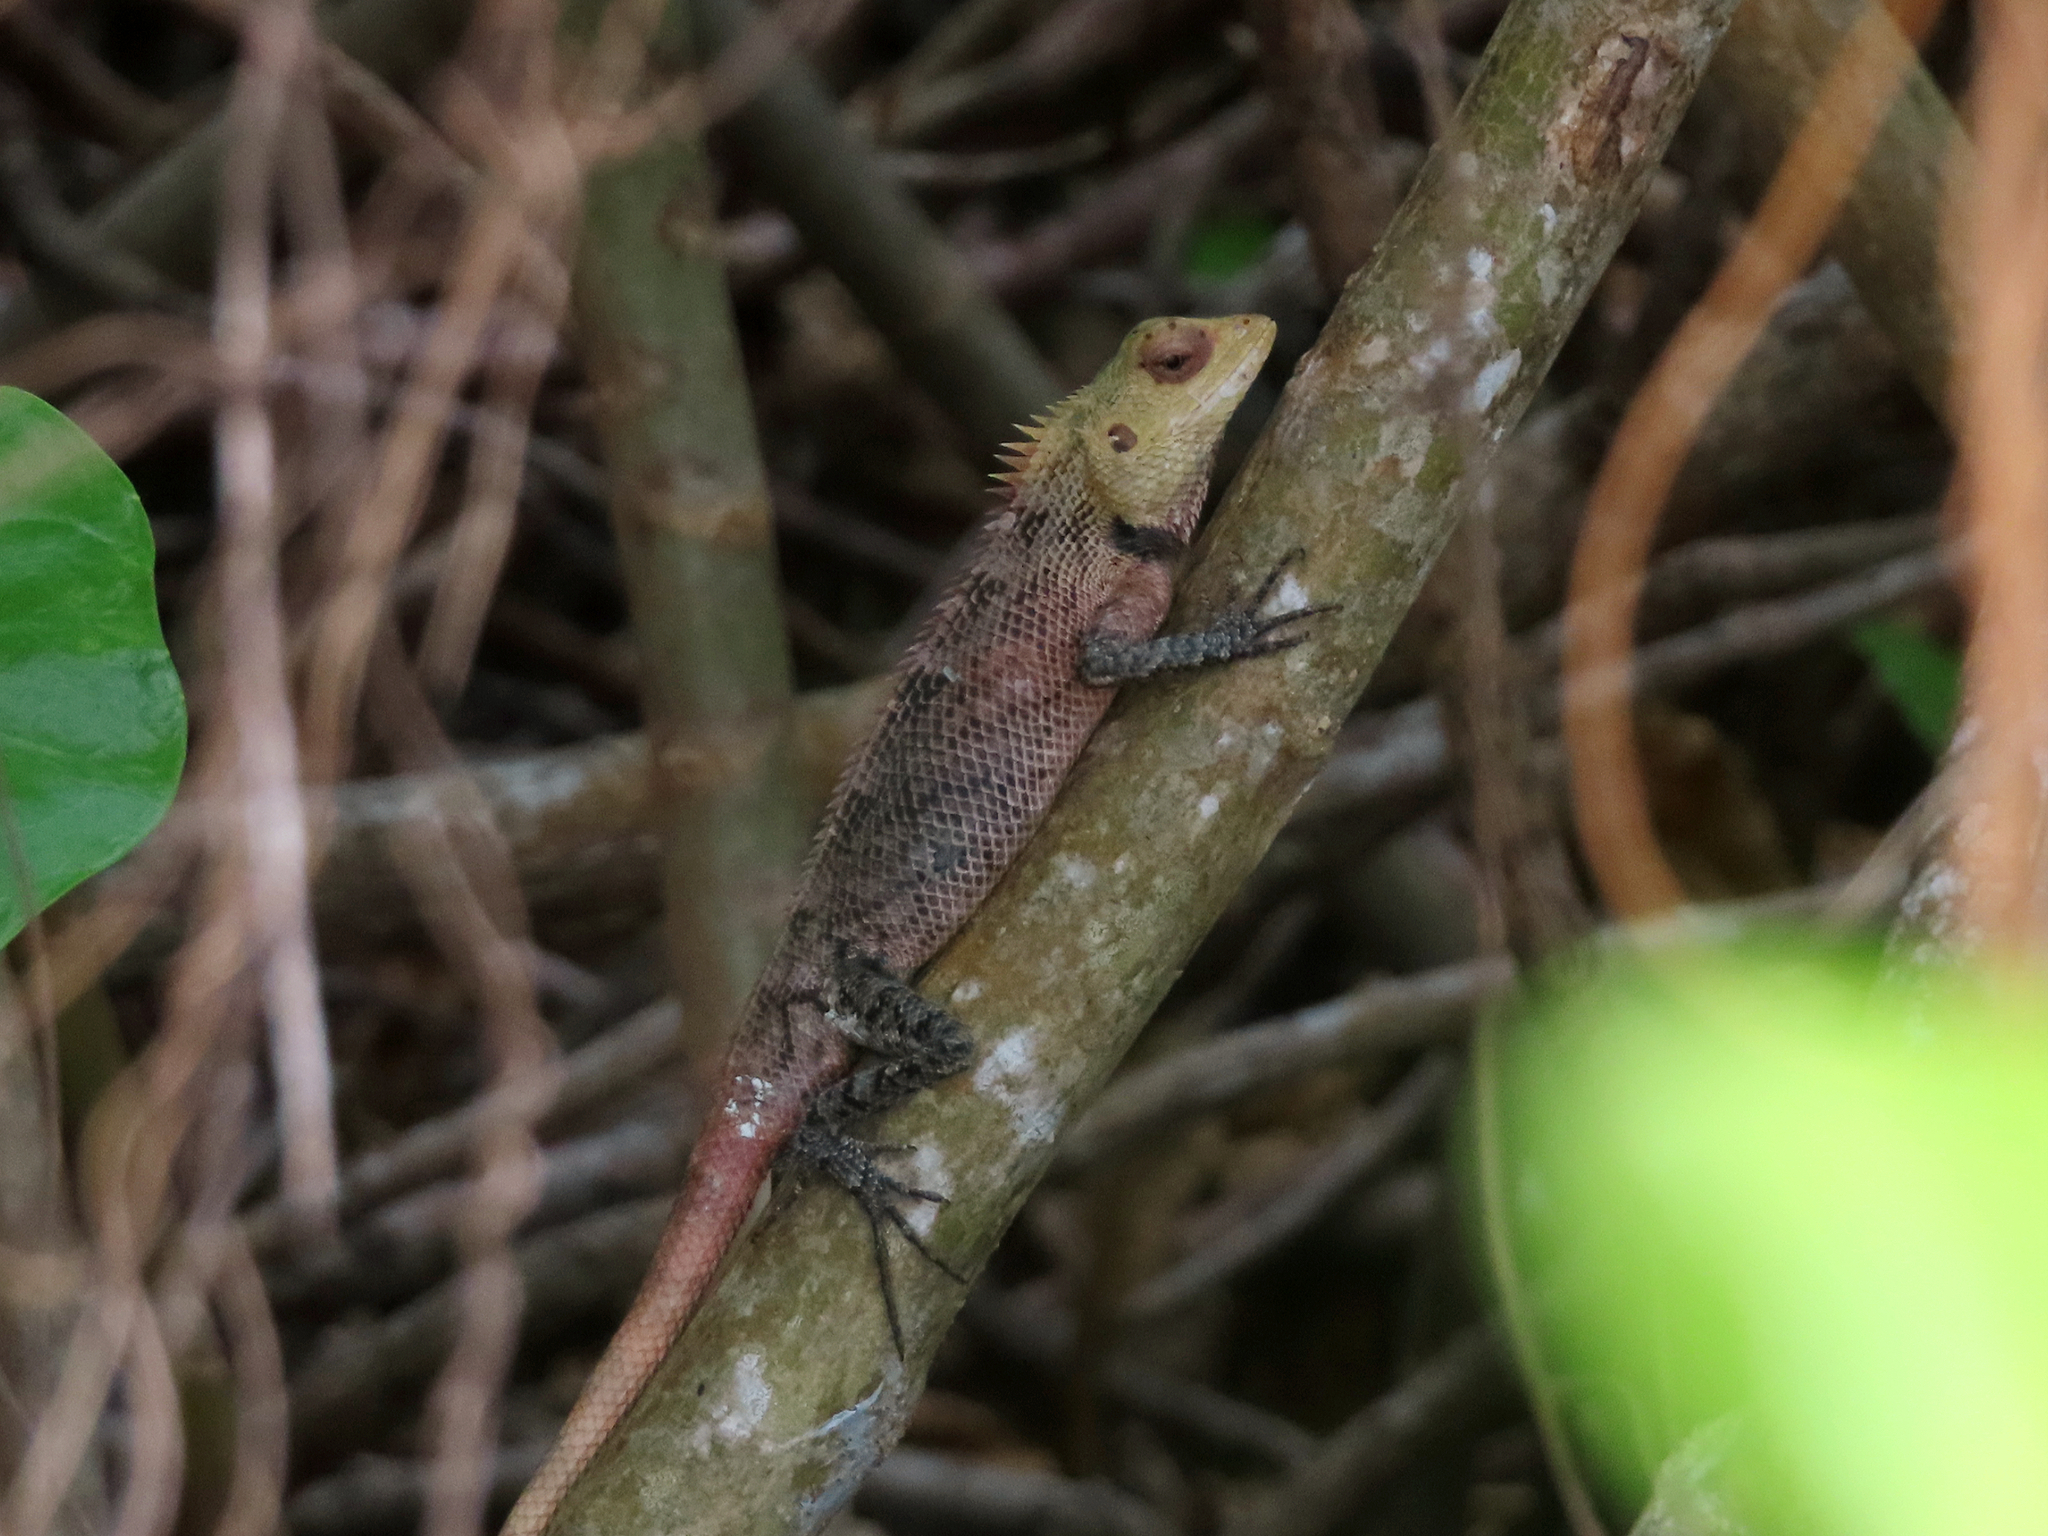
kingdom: Animalia
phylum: Chordata
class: Squamata
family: Agamidae
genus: Calotes
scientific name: Calotes versicolor
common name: Oriental garden lizard
